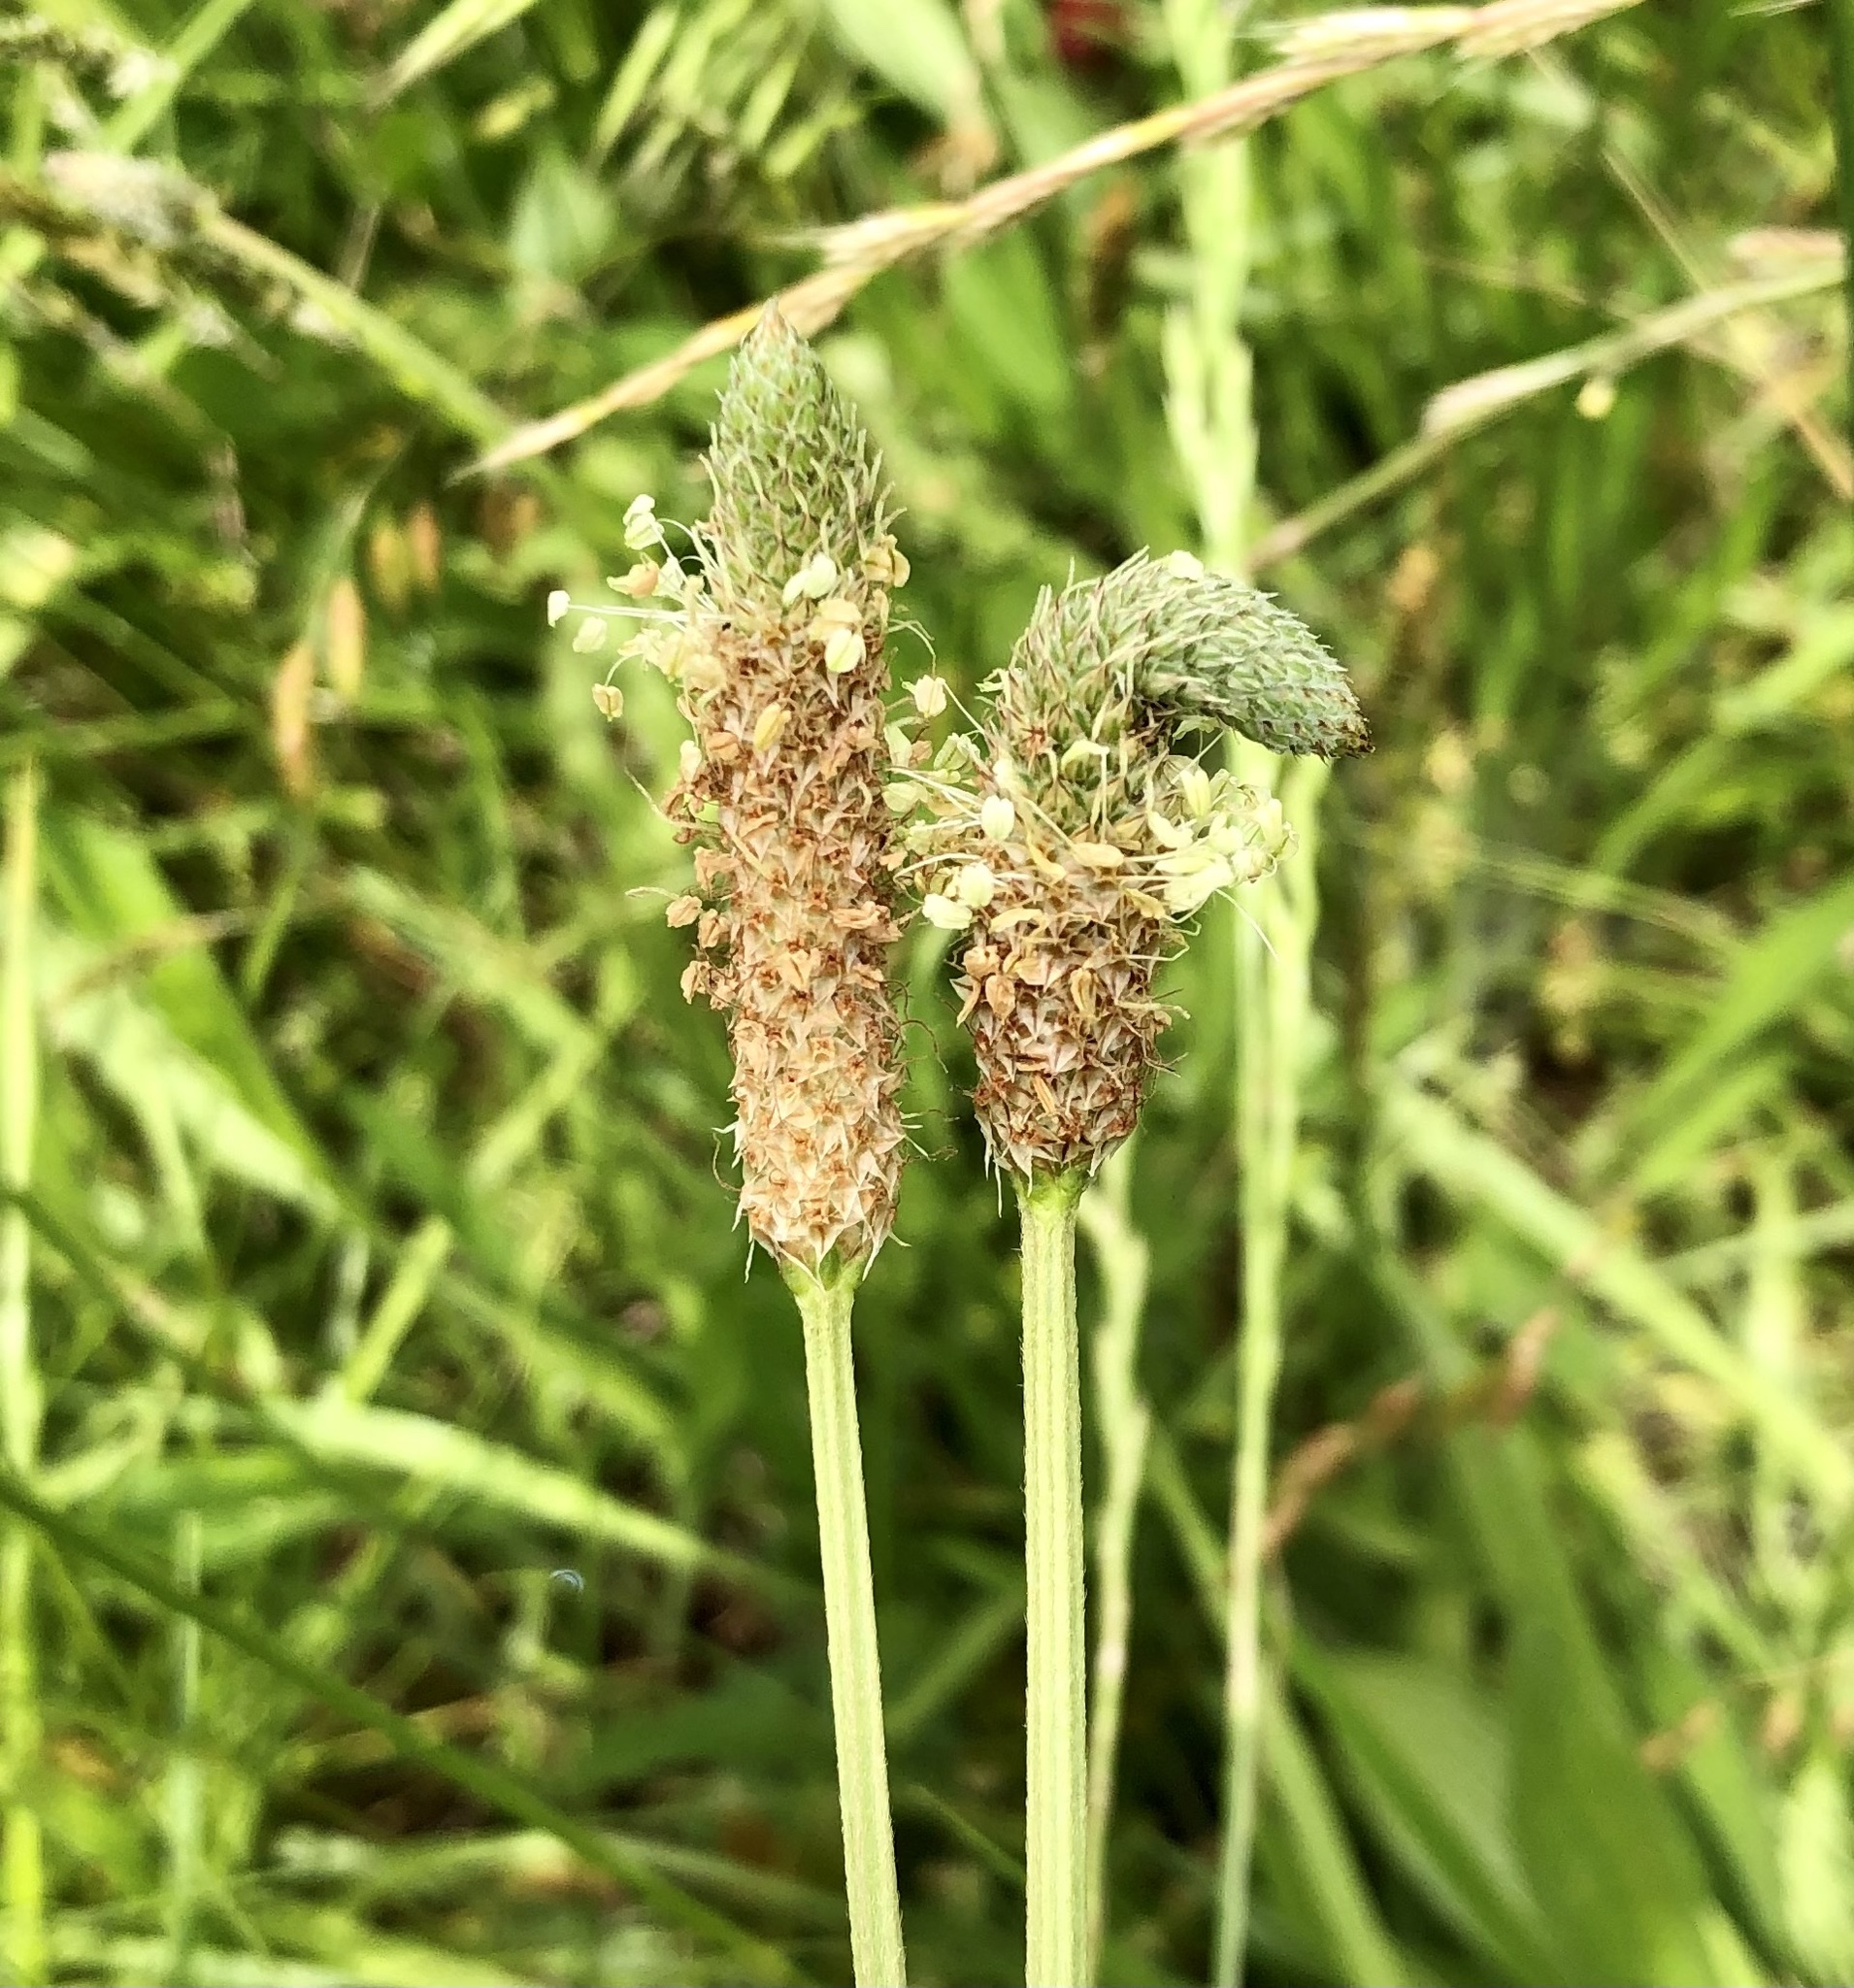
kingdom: Plantae
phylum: Tracheophyta
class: Magnoliopsida
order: Lamiales
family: Plantaginaceae
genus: Plantago
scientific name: Plantago lanceolata
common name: Ribwort plantain
